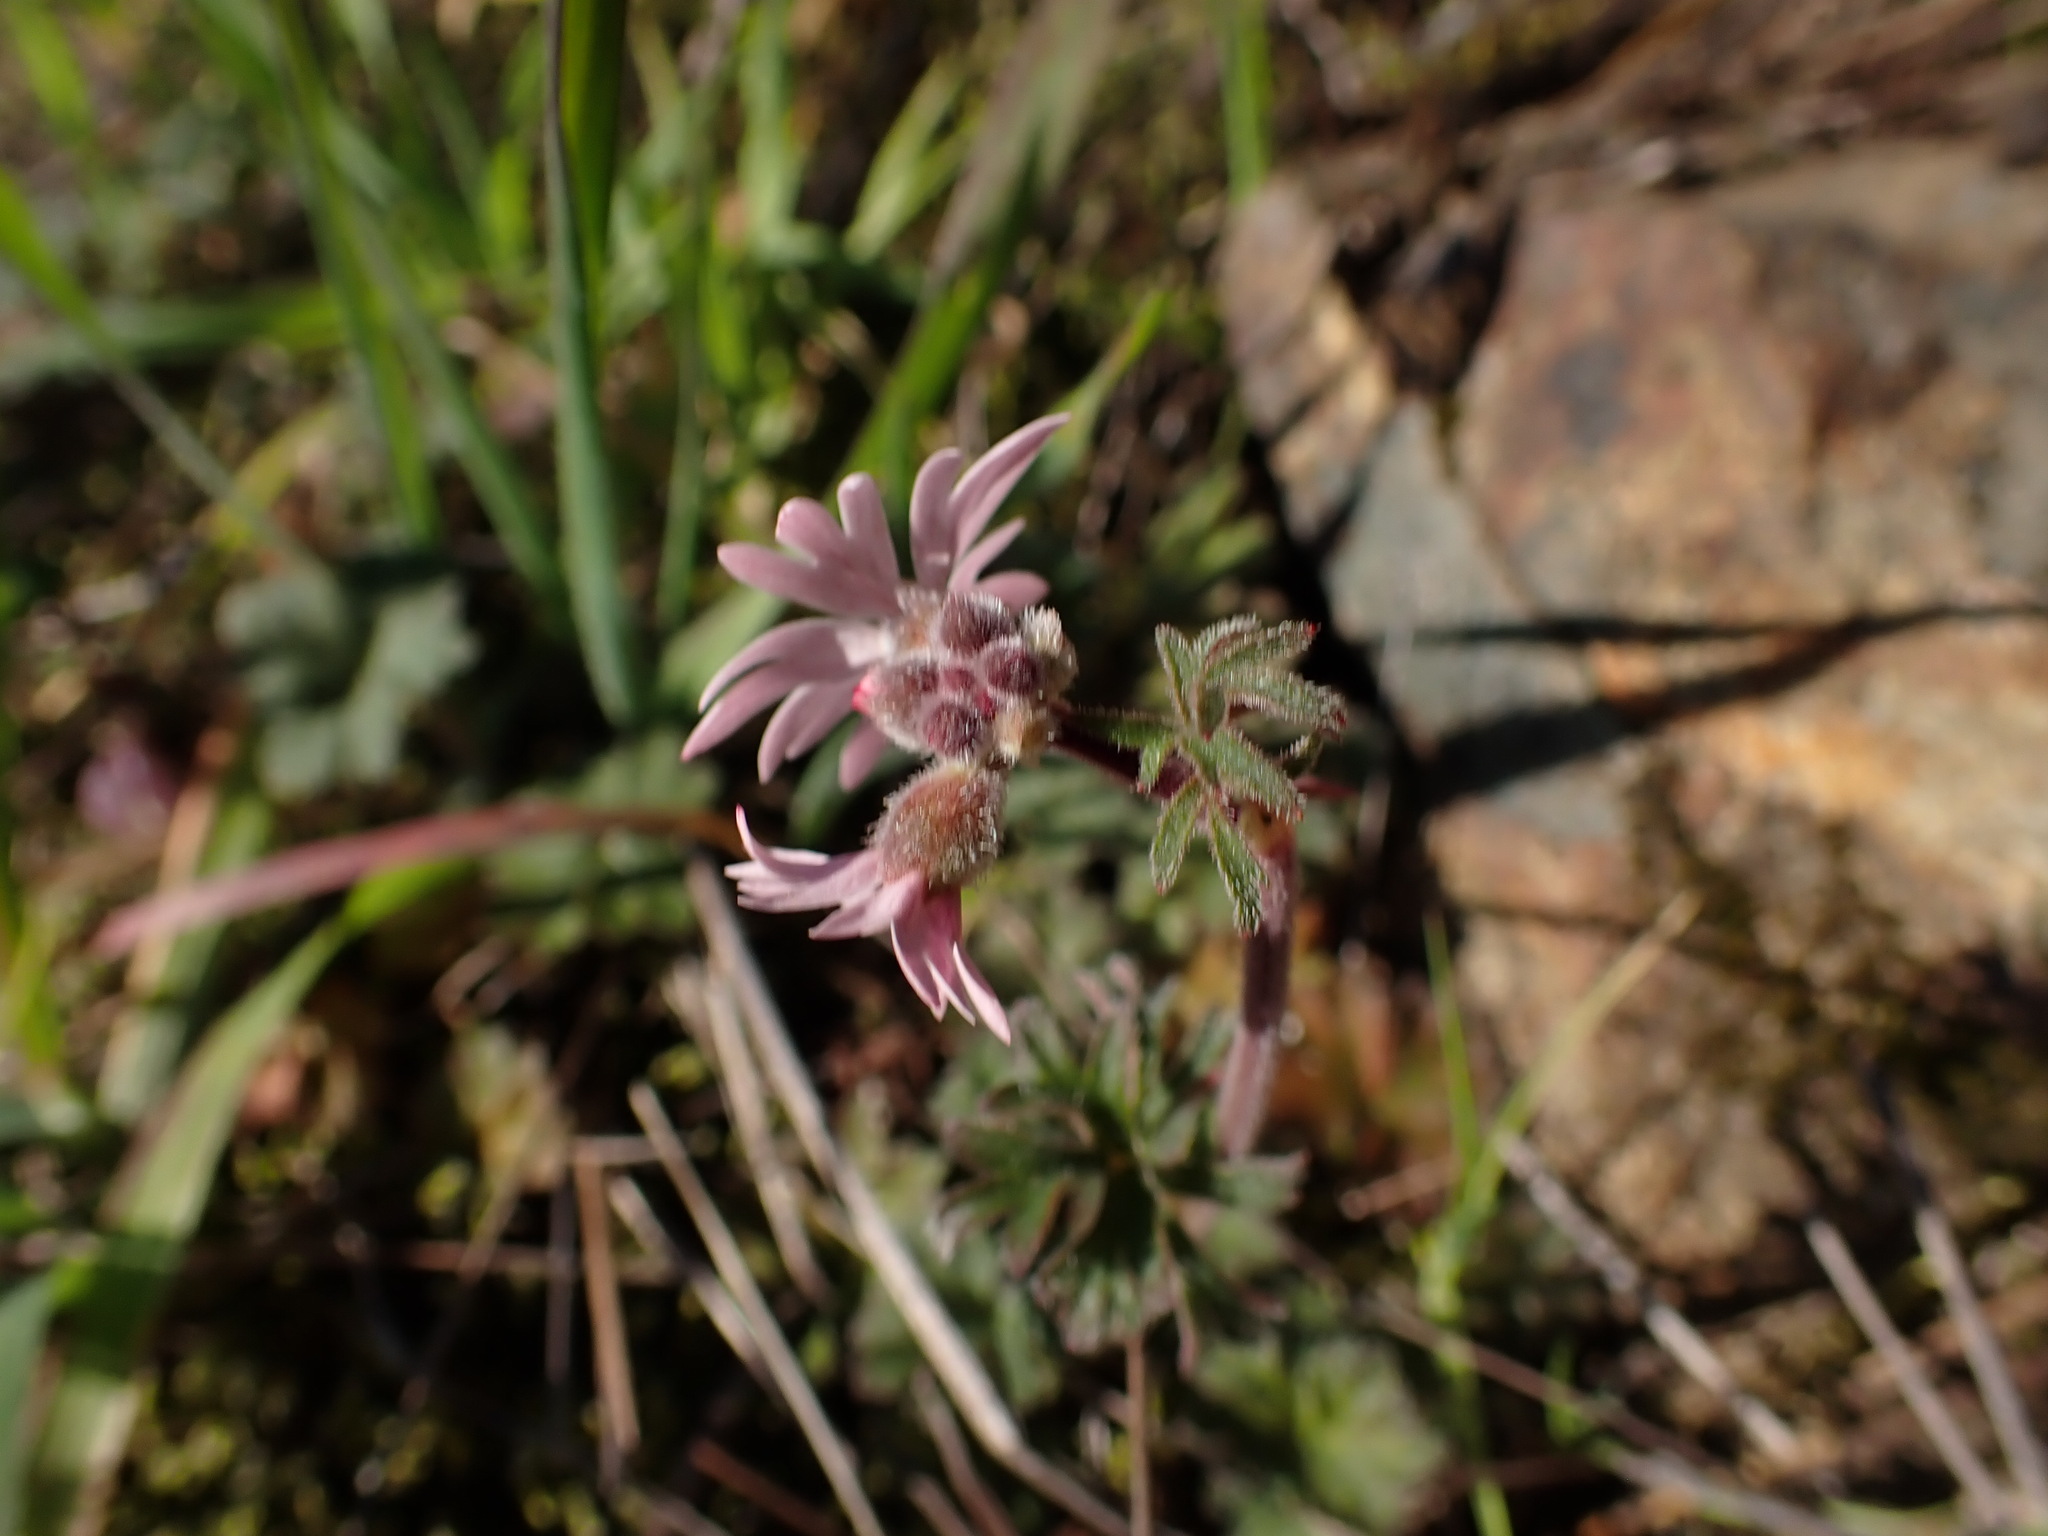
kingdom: Plantae
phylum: Tracheophyta
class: Magnoliopsida
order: Saxifragales
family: Saxifragaceae
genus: Lithophragma
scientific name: Lithophragma parviflorum
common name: Small-flowered fringe-cup
